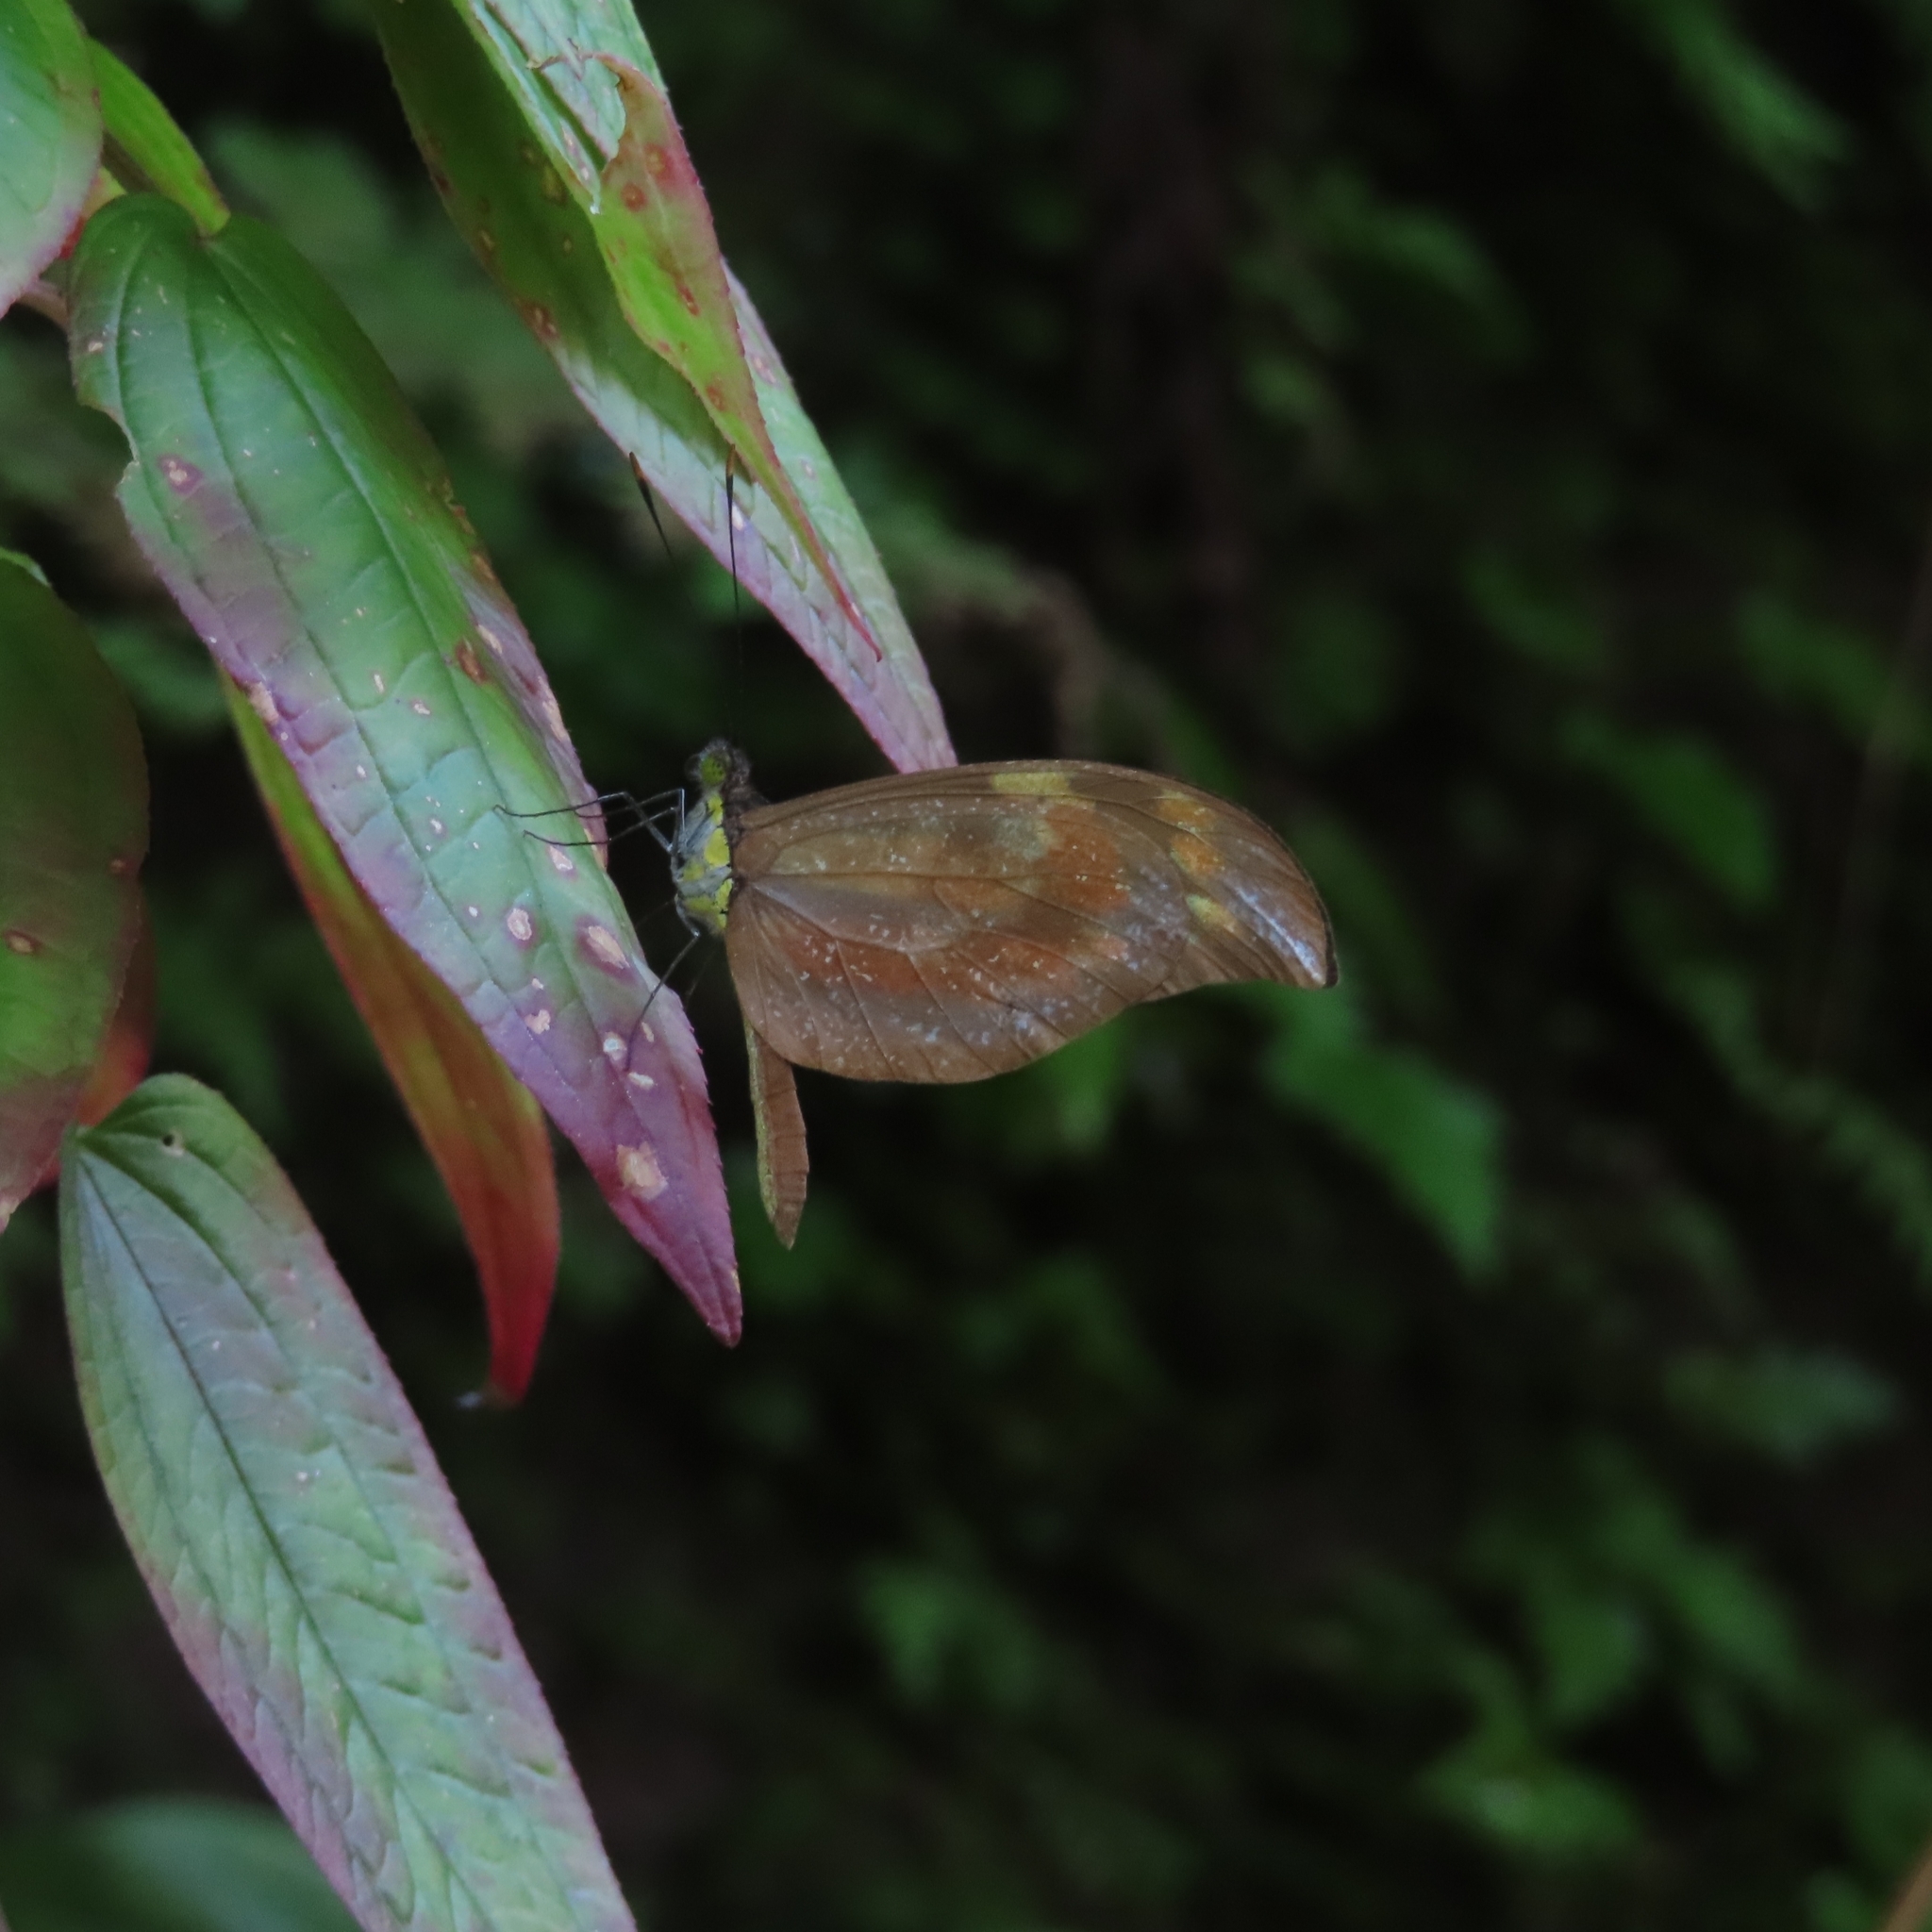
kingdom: Animalia
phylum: Arthropoda
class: Insecta
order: Lepidoptera
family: Pieridae
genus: Dismorphia
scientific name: Dismorphia spio
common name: Haitian mimic
